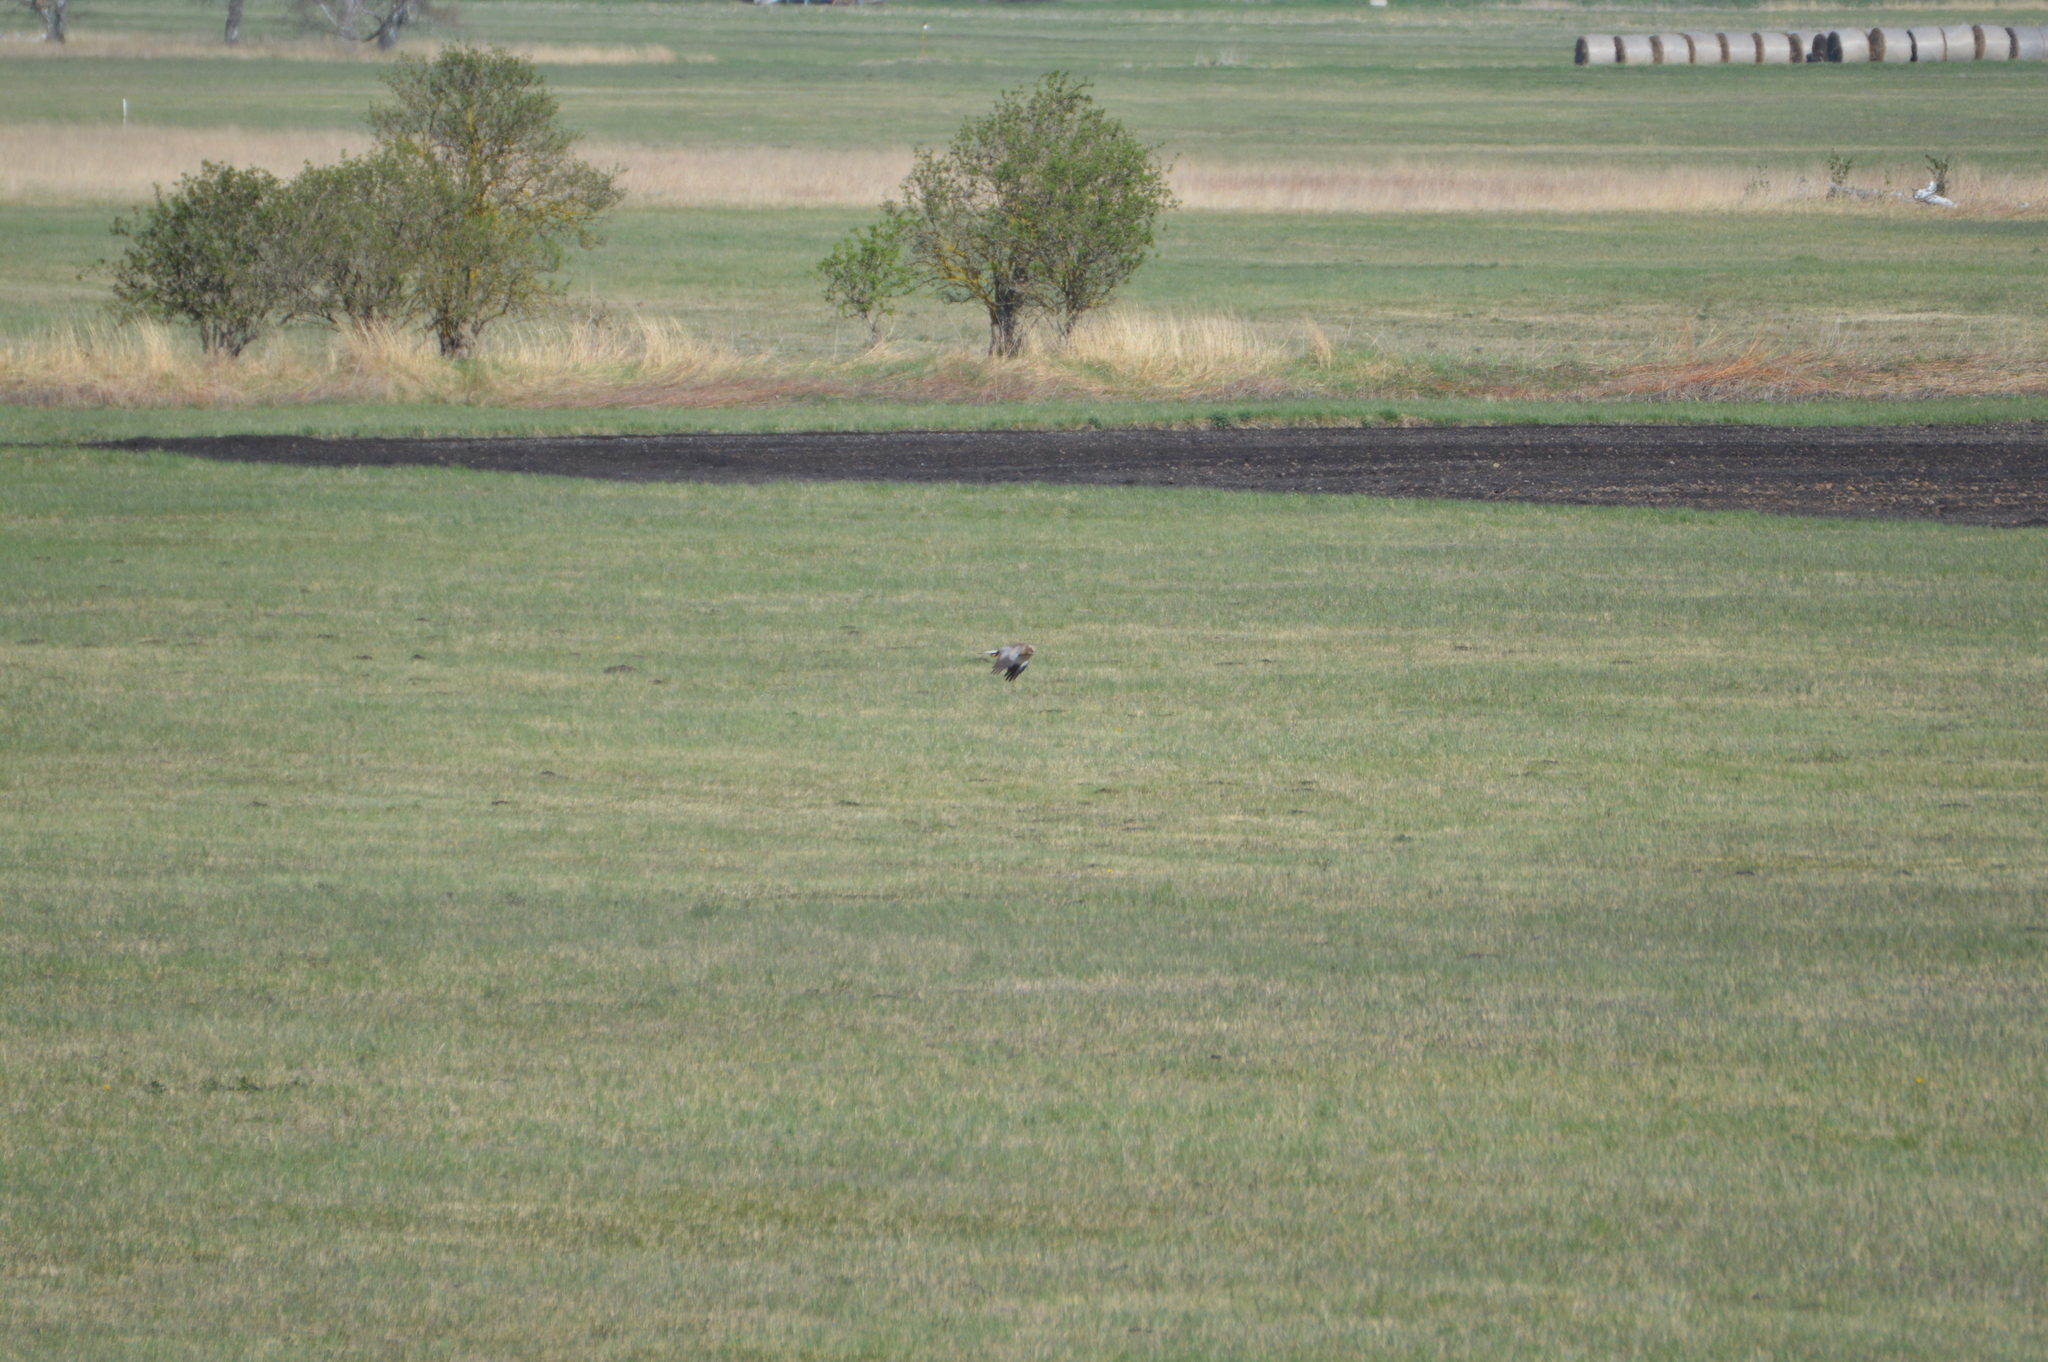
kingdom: Animalia
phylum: Chordata
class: Aves
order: Accipitriformes
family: Accipitridae
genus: Circus
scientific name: Circus aeruginosus
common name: Western marsh harrier
